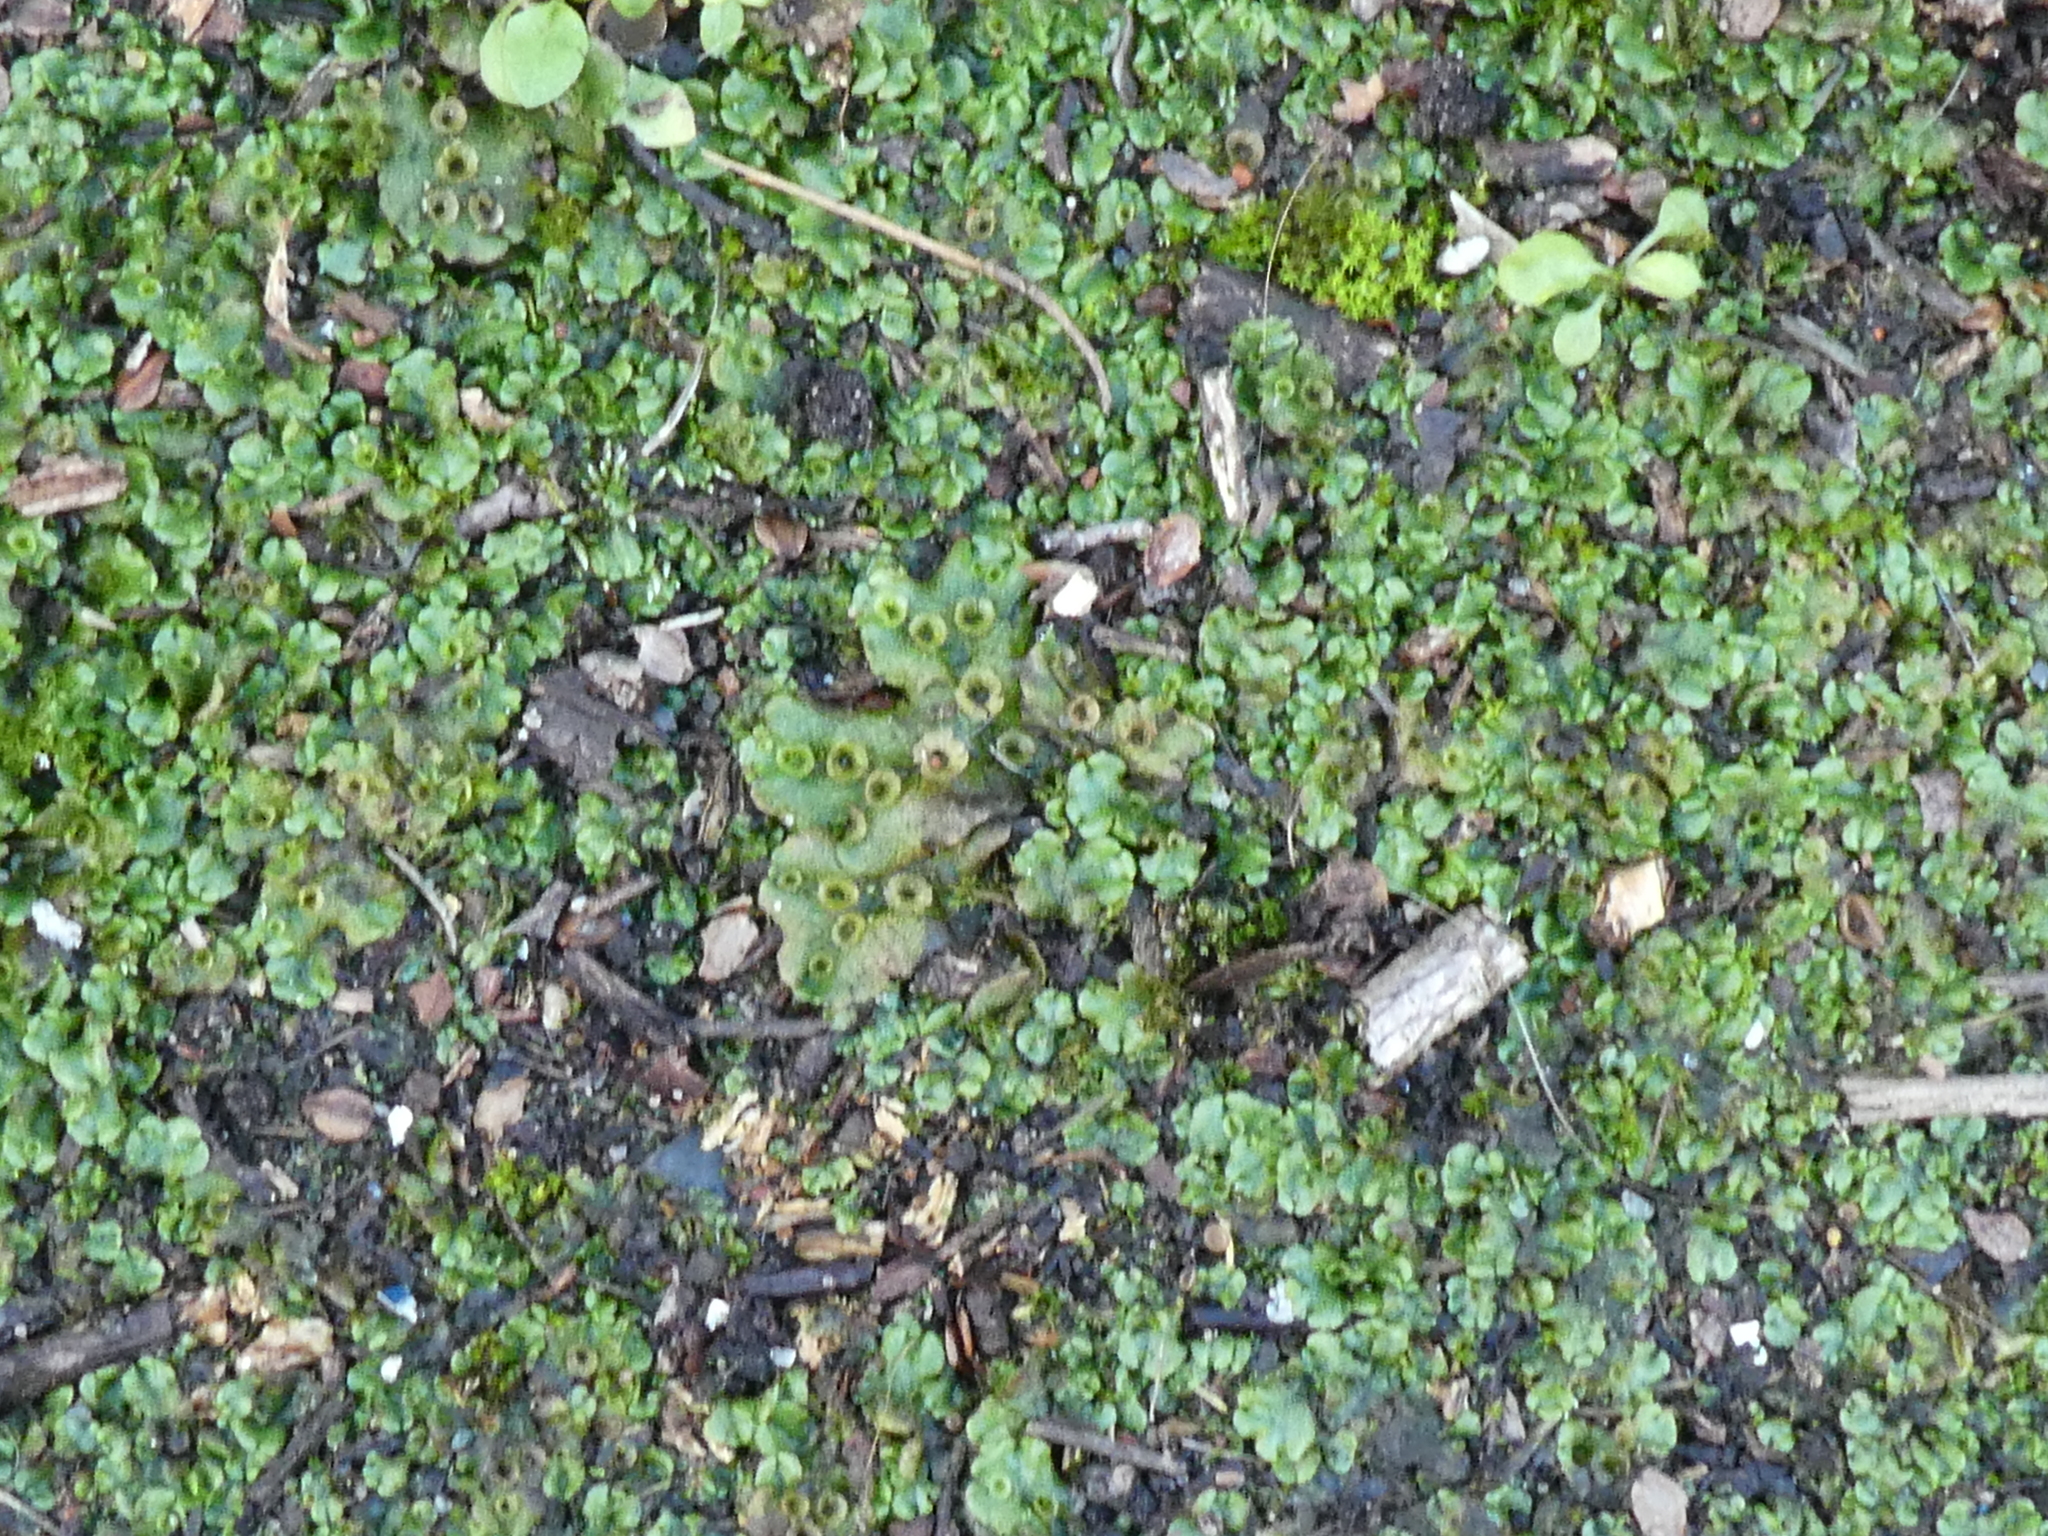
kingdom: Plantae
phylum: Marchantiophyta
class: Marchantiopsida
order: Marchantiales
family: Marchantiaceae
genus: Marchantia
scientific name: Marchantia polymorpha
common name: Common liverwort
